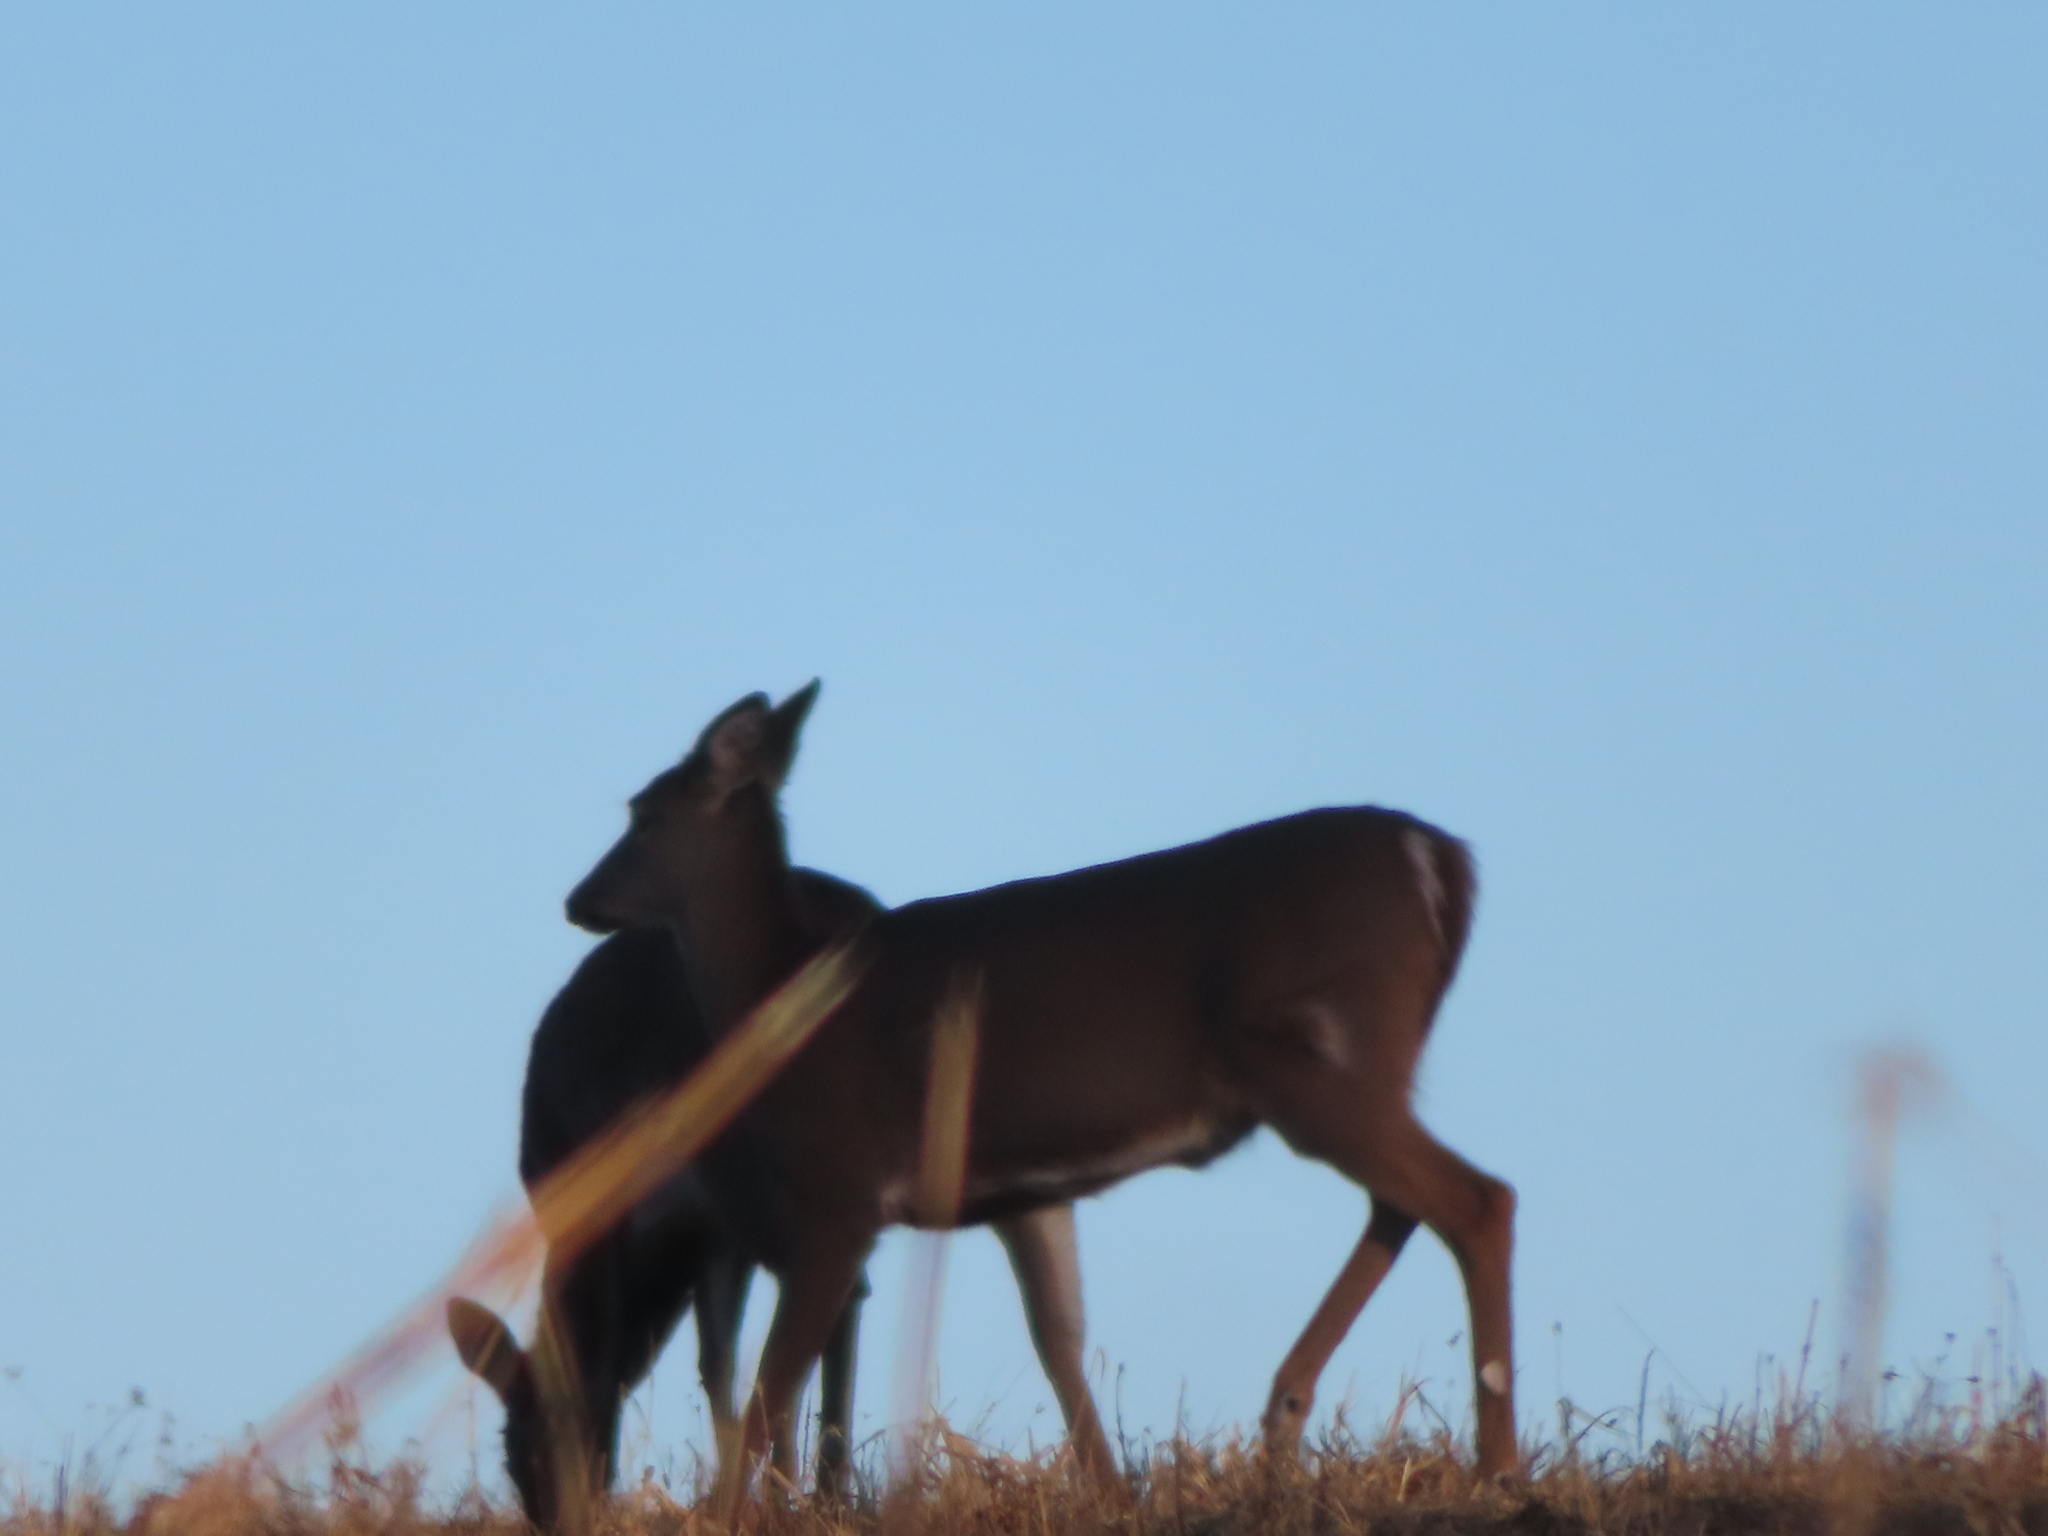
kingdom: Animalia
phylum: Chordata
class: Mammalia
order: Artiodactyla
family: Cervidae
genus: Odocoileus
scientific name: Odocoileus virginianus
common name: White-tailed deer
